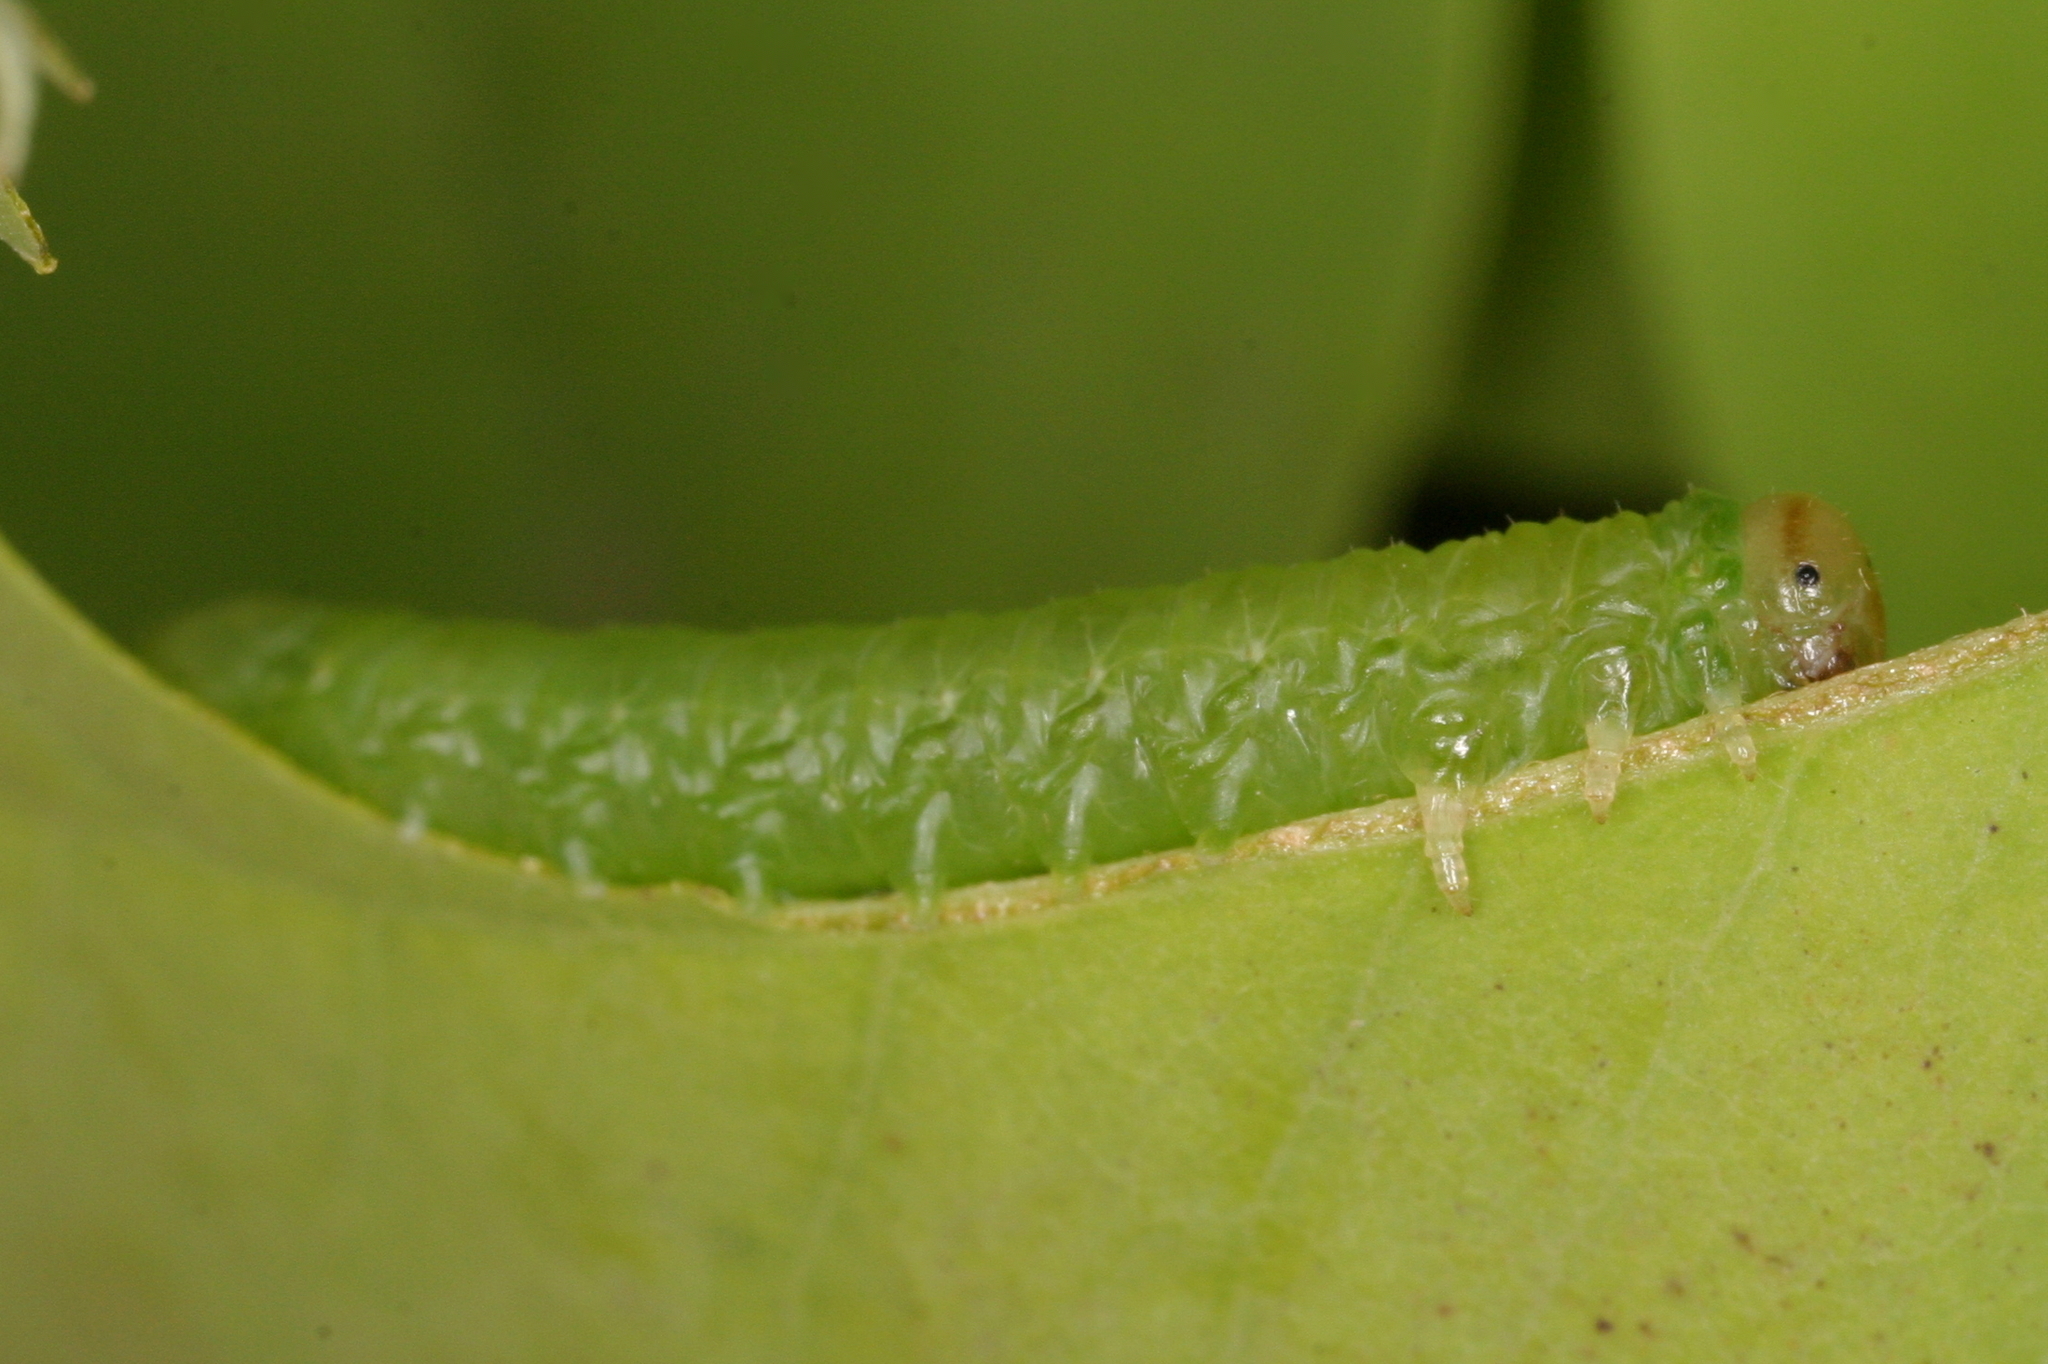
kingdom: Animalia
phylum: Arthropoda
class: Insecta
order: Hymenoptera
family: Tenthredinidae
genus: Euura
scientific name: Euura tibialis
